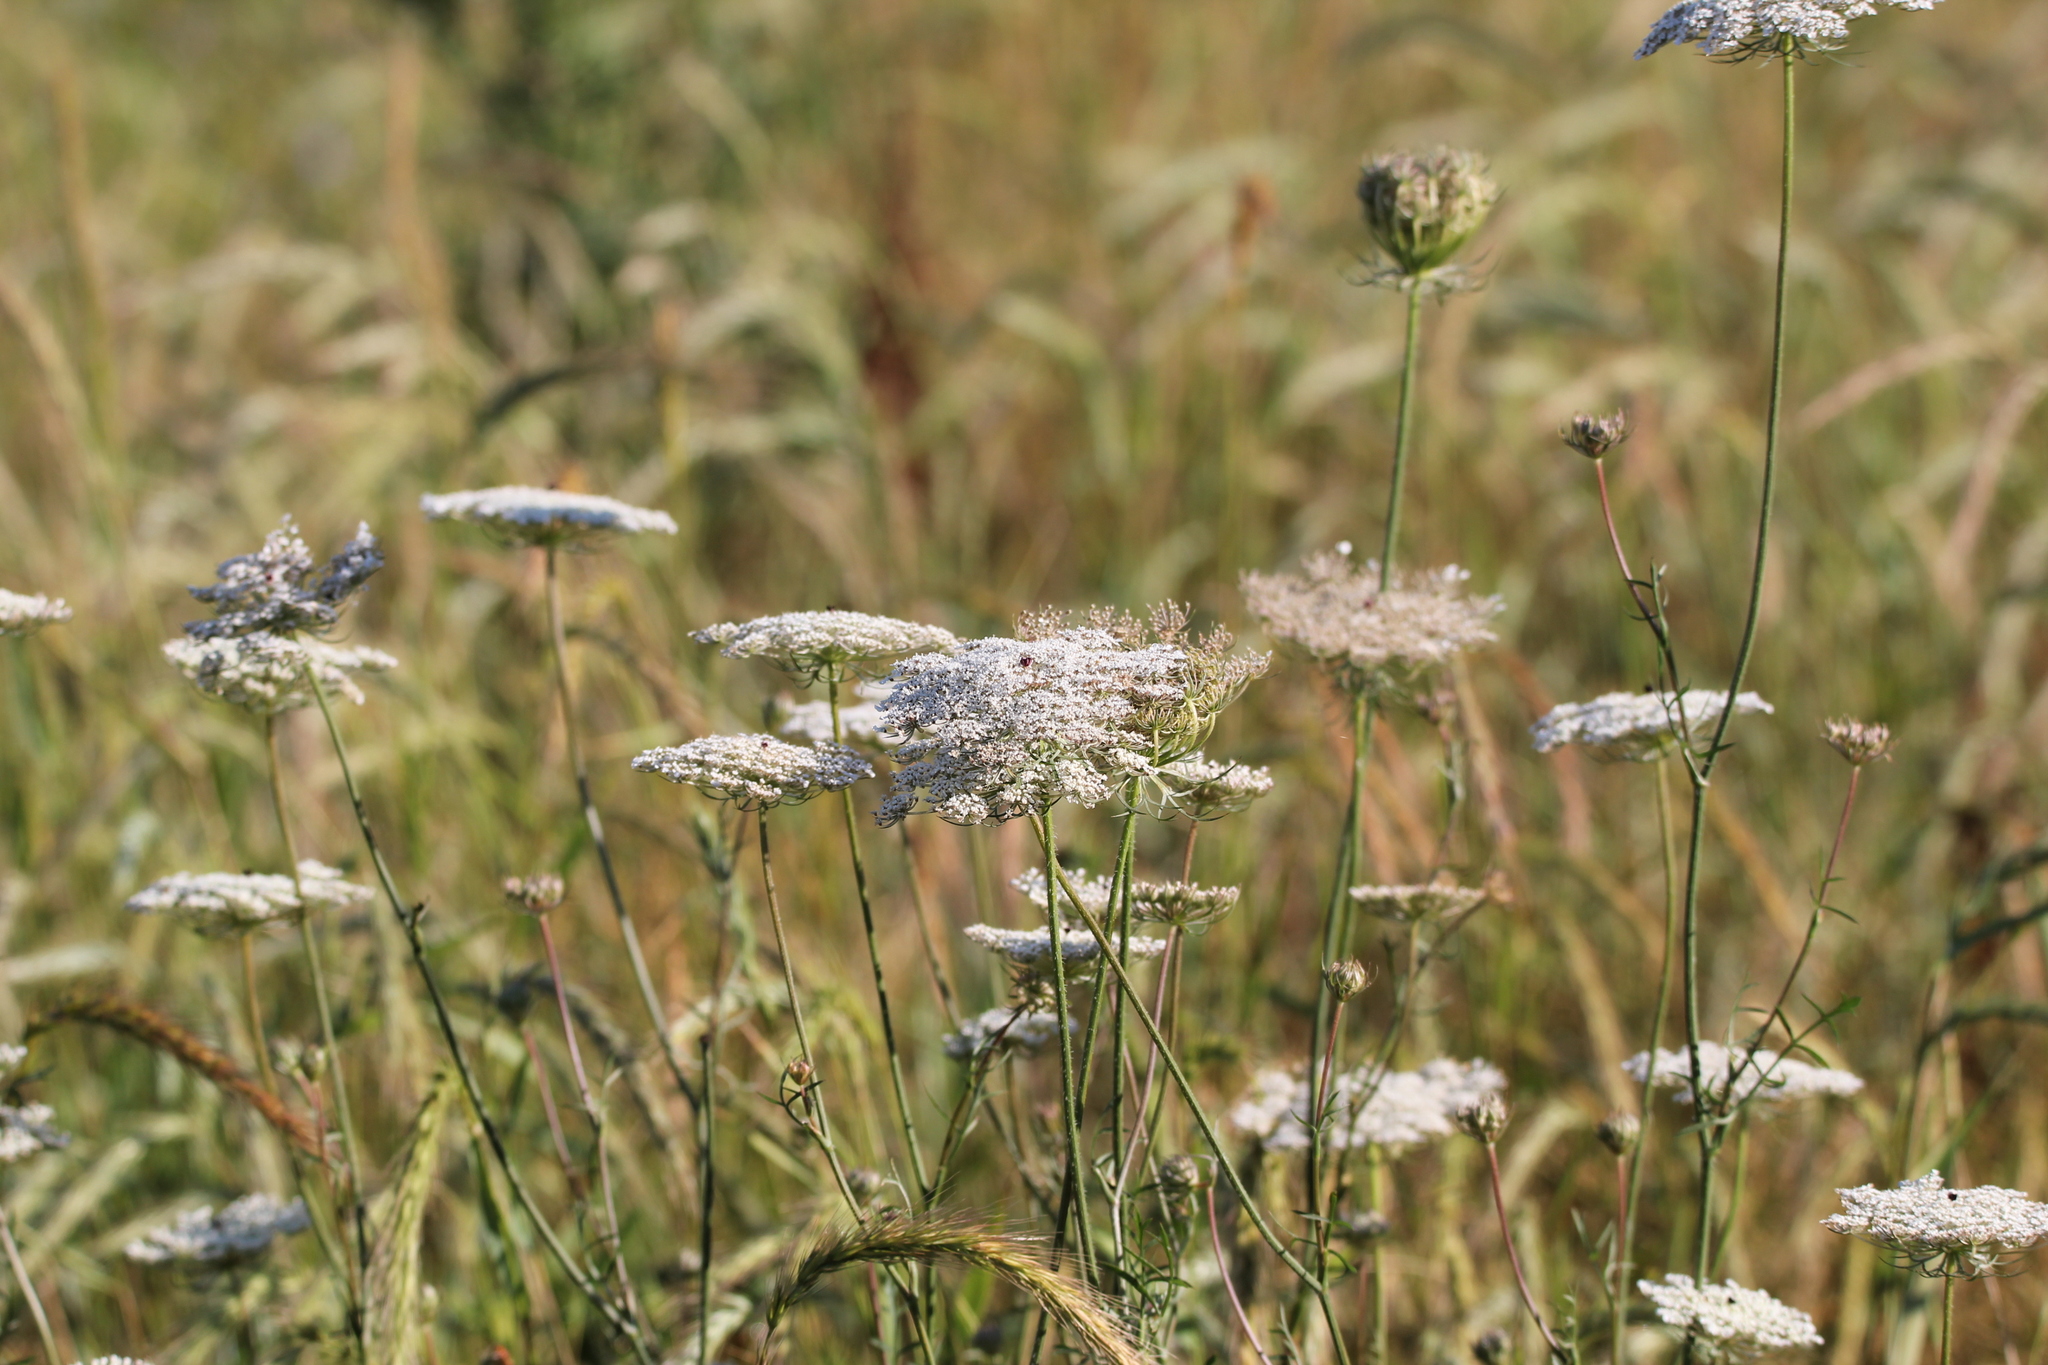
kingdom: Plantae
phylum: Tracheophyta
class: Magnoliopsida
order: Apiales
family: Apiaceae
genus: Daucus
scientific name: Daucus carota
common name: Wild carrot
